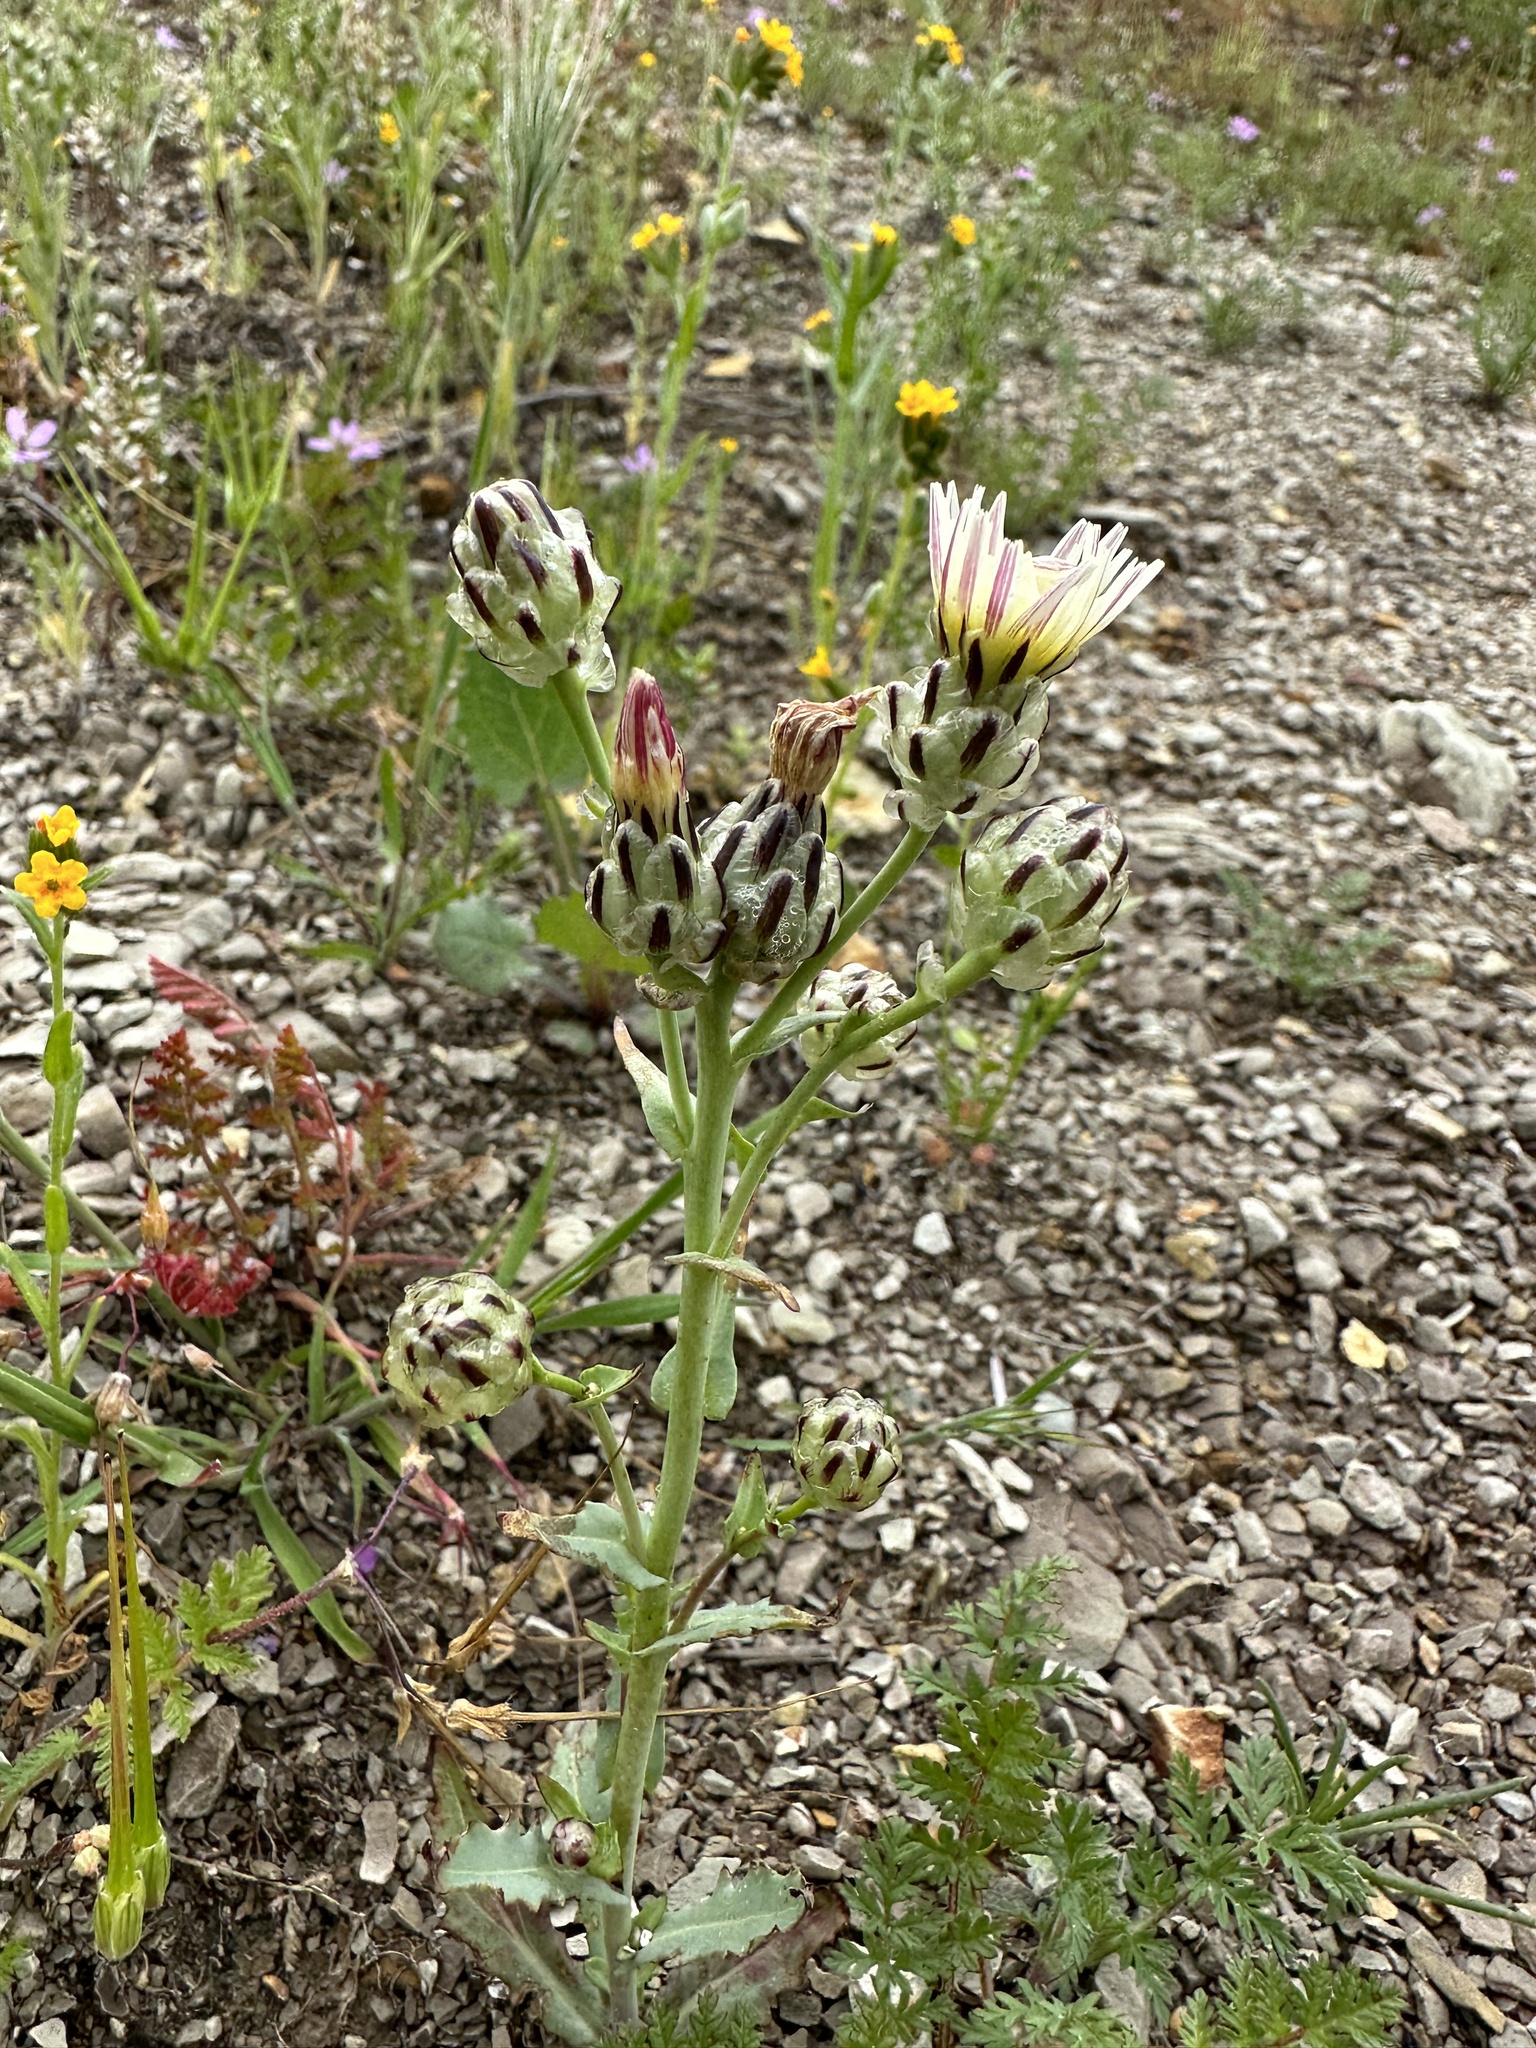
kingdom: Plantae
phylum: Tracheophyta
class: Magnoliopsida
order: Asterales
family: Asteraceae
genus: Malacothrix
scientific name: Malacothrix coulteri
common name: Snake's-head
